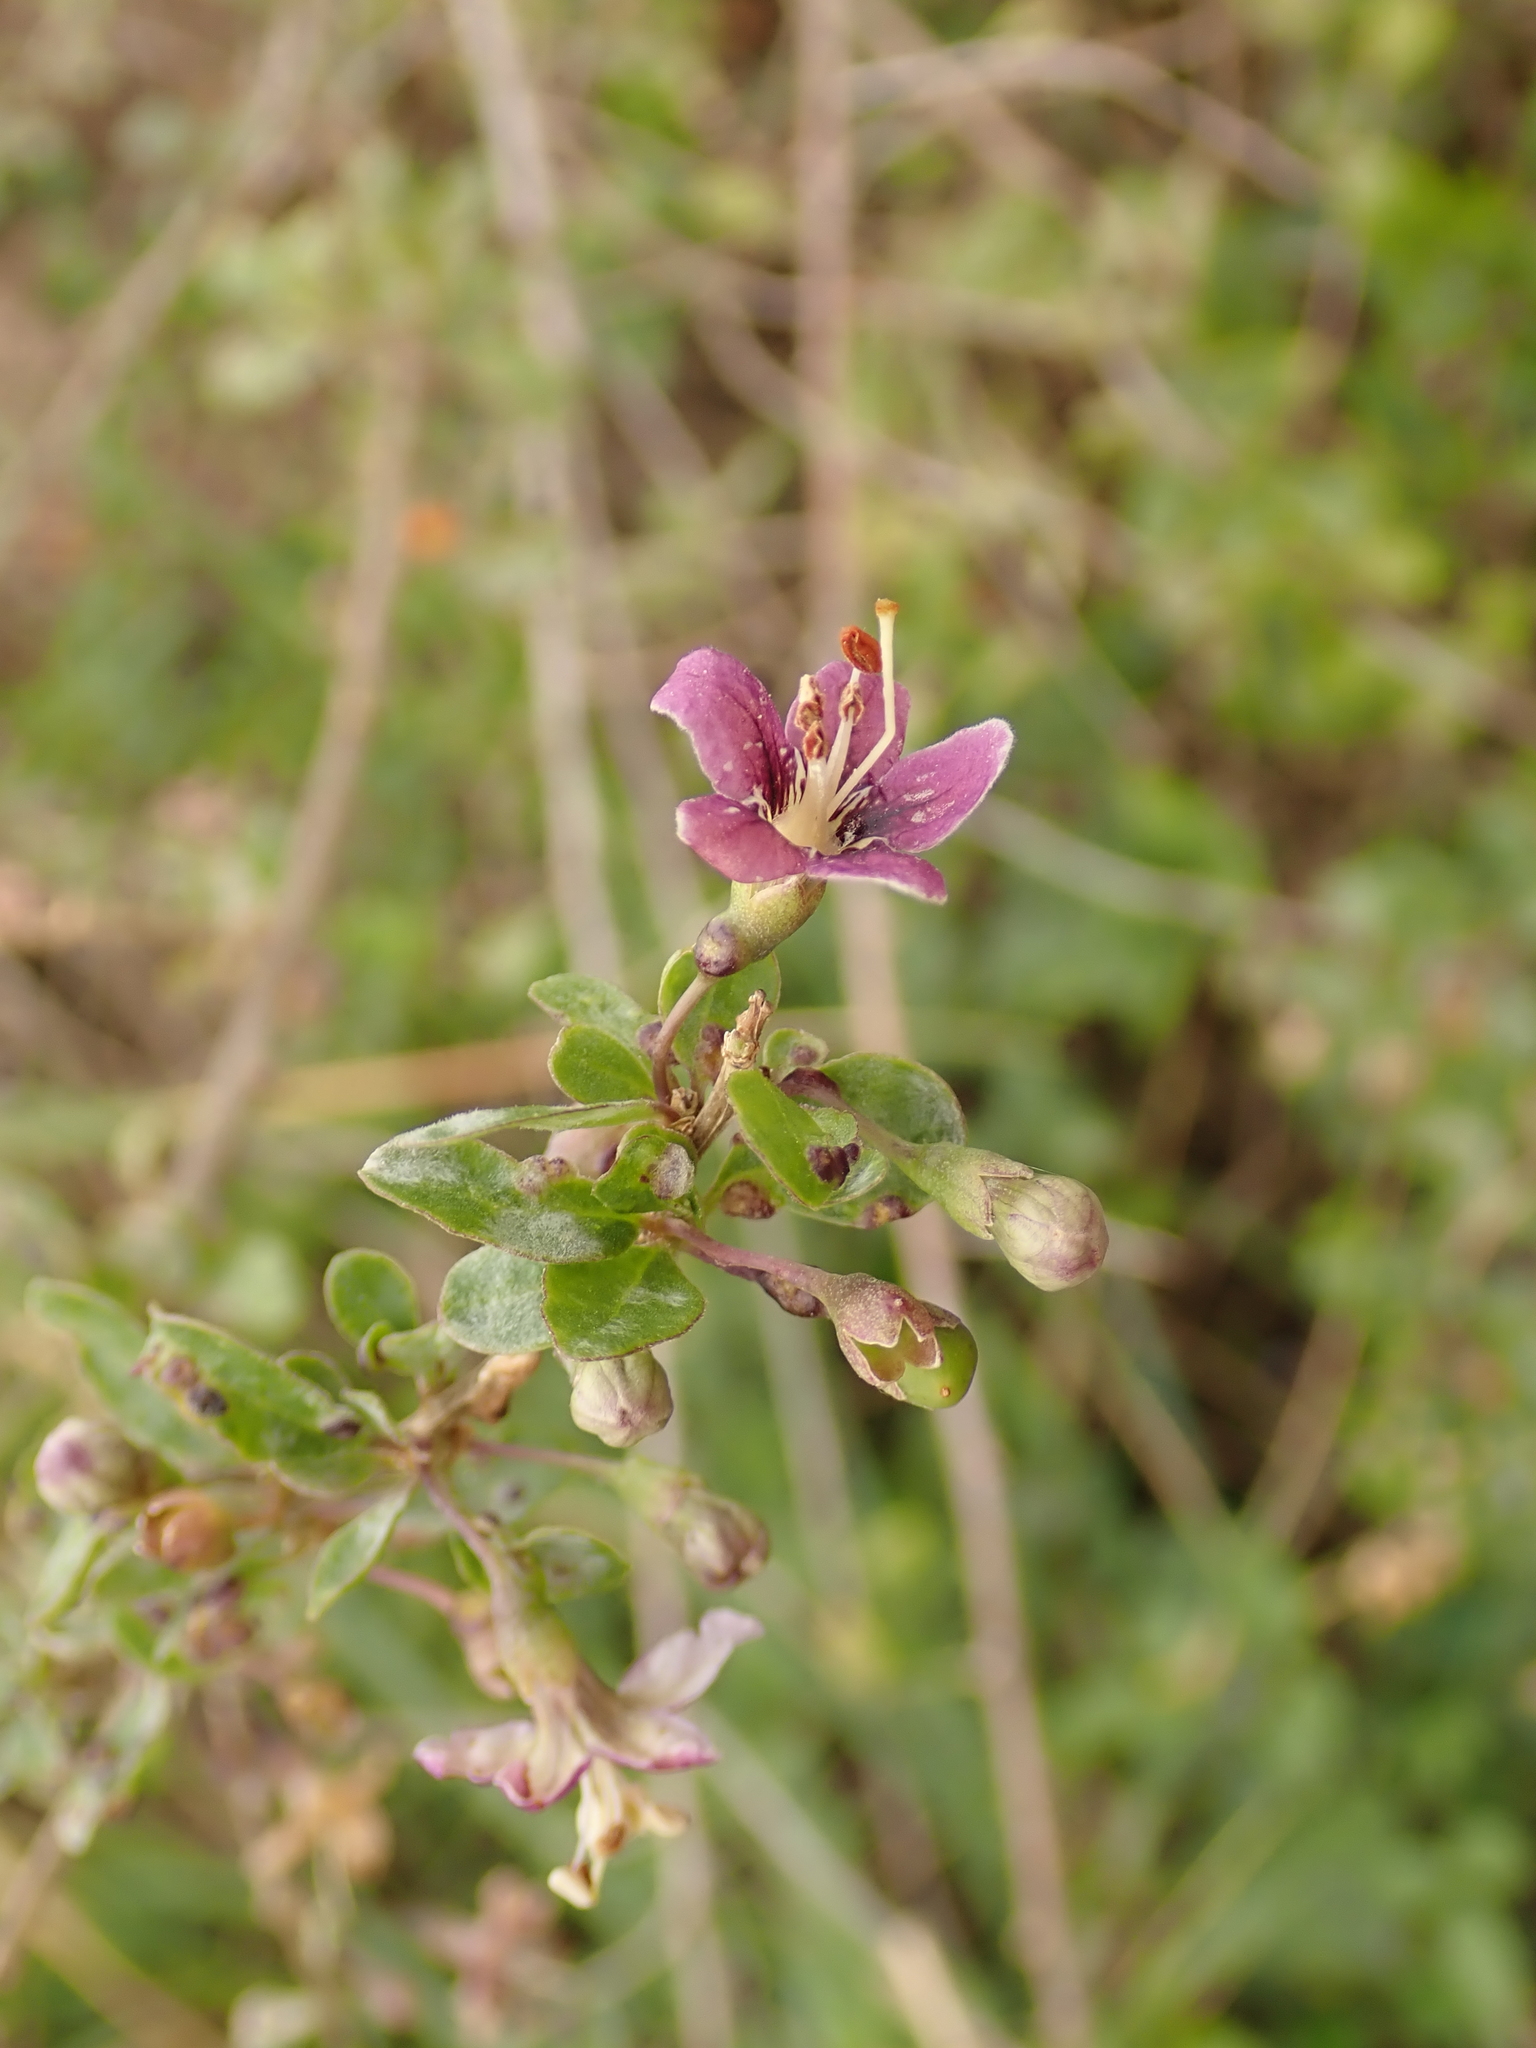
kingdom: Plantae
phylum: Tracheophyta
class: Magnoliopsida
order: Solanales
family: Solanaceae
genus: Lycium
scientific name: Lycium barbarum
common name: Duke of argyll's teaplant
